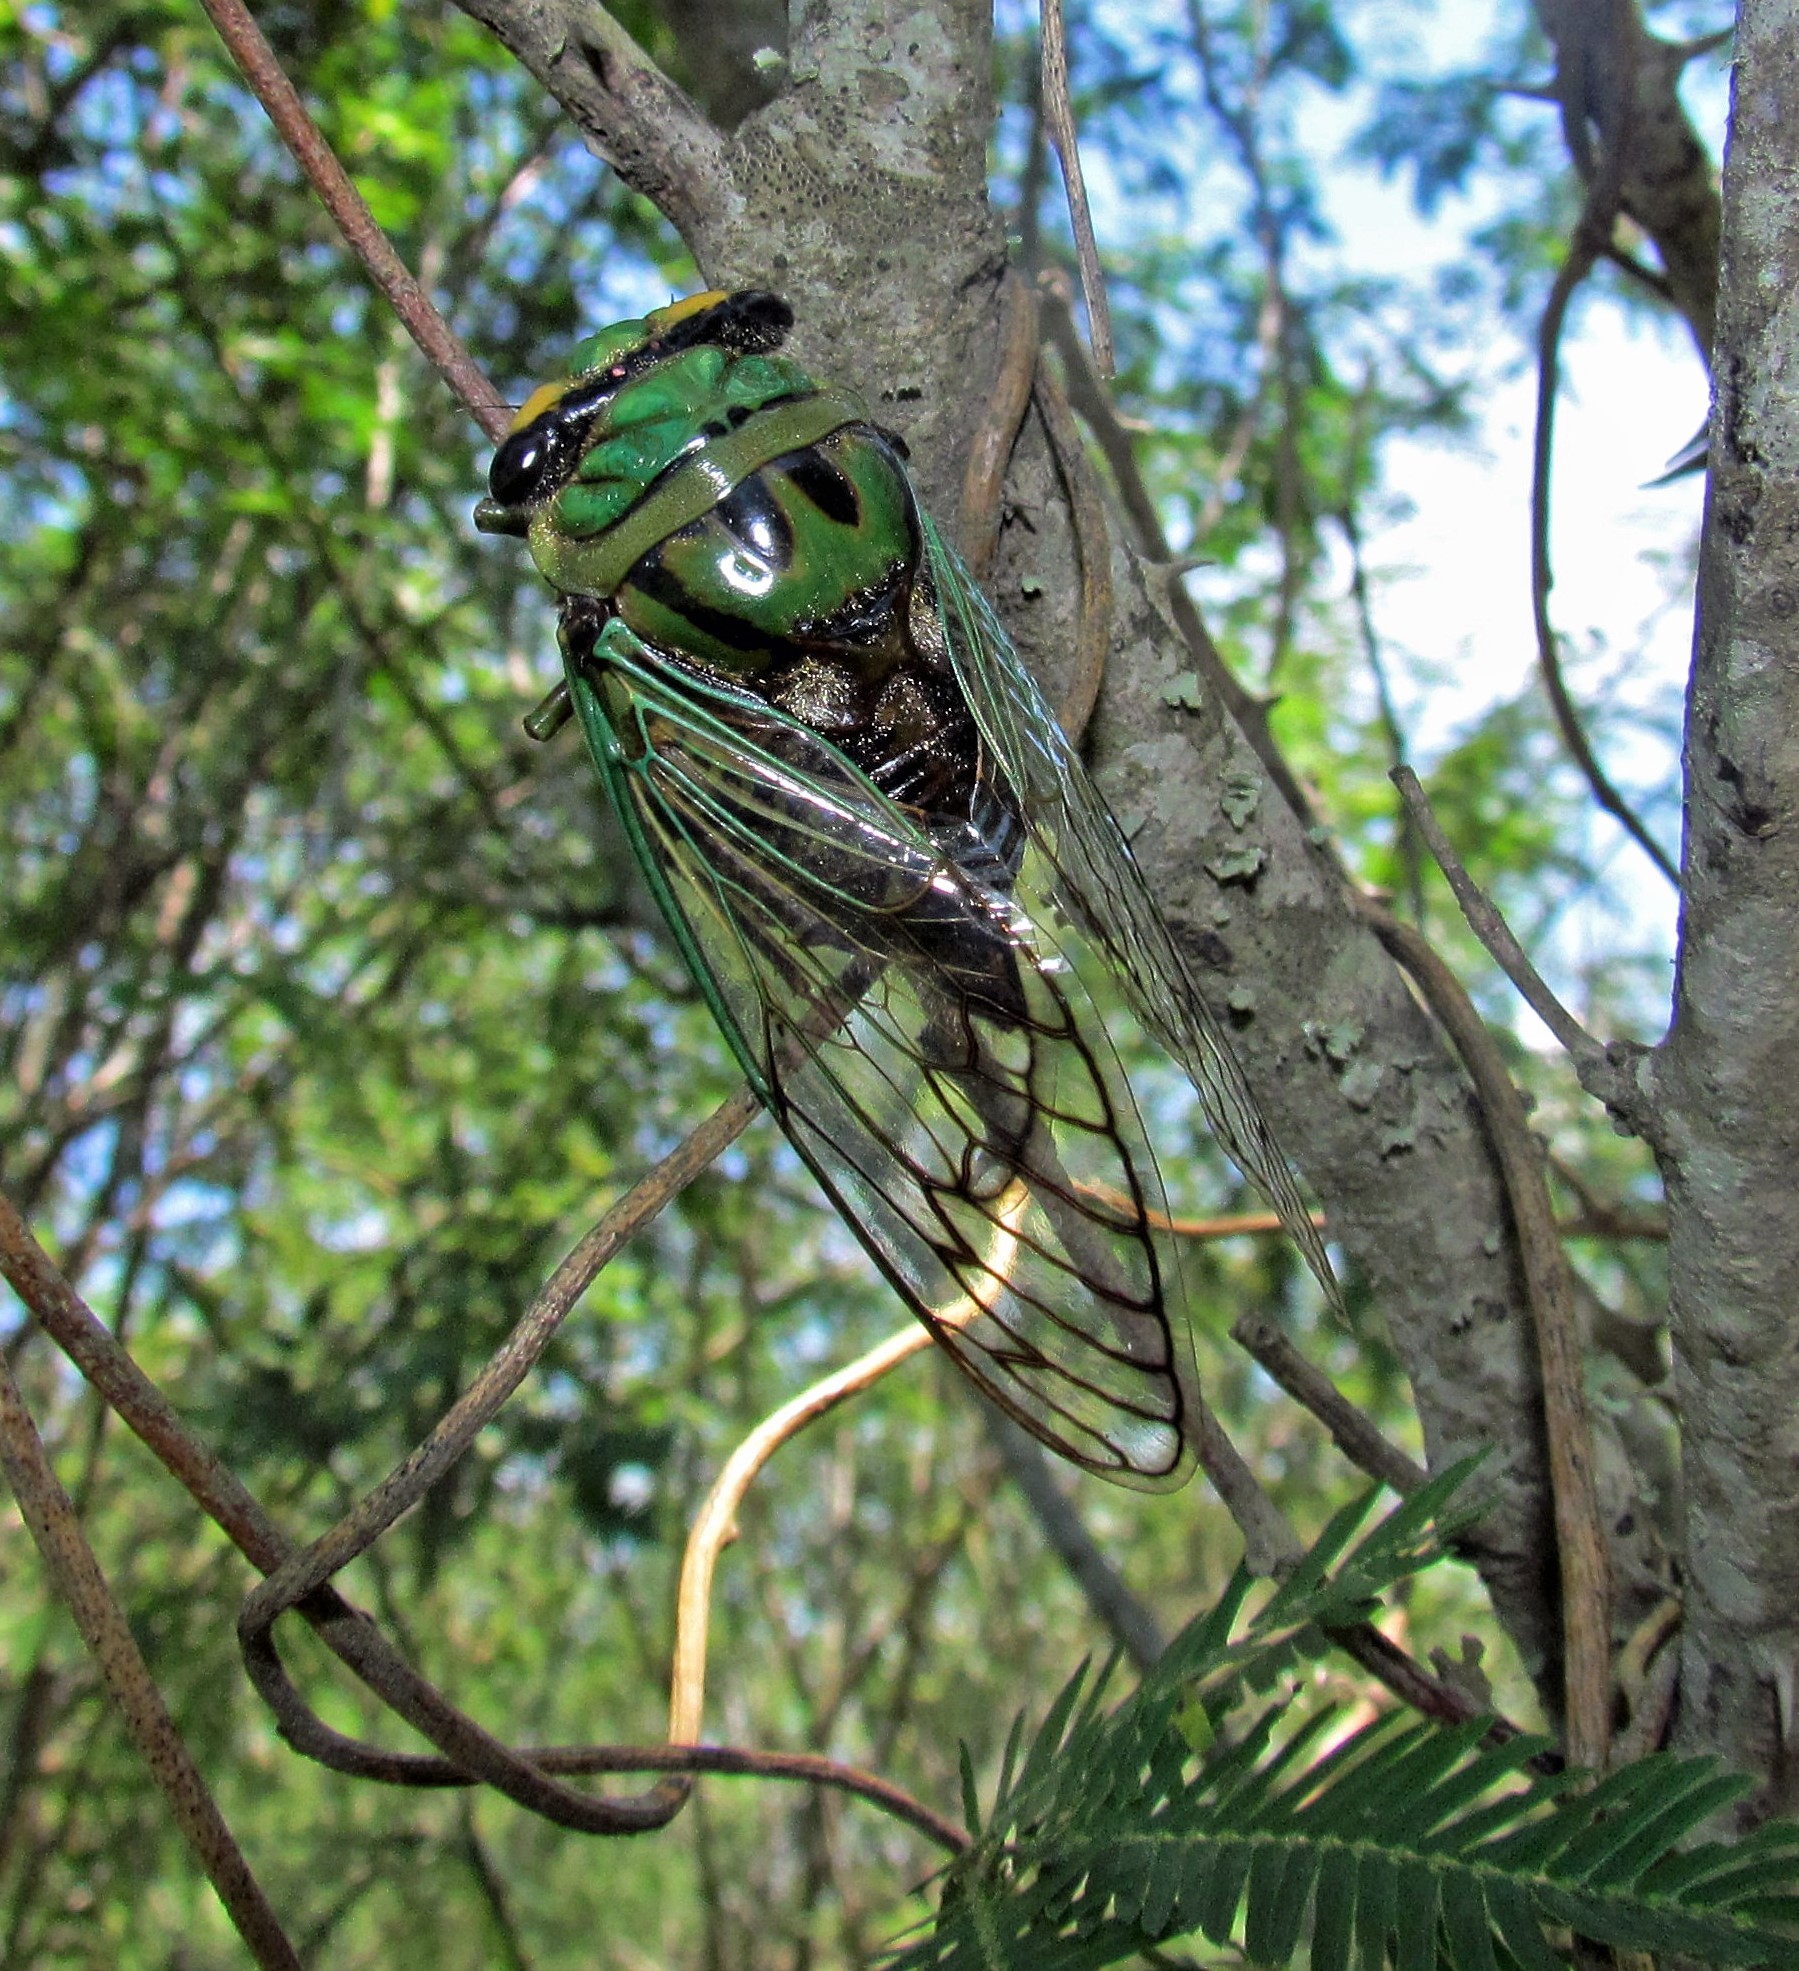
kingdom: Animalia
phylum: Arthropoda
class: Insecta
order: Hemiptera
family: Cicadidae
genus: Guyalna
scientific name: Guyalna bonaerensis
